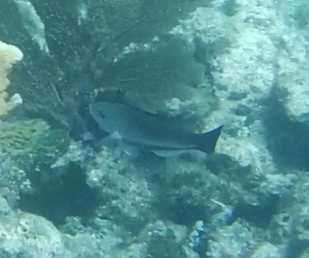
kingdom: Animalia
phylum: Chordata
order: Perciformes
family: Scaridae
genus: Scarus
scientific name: Scarus vetula
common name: Queen parrotfish
